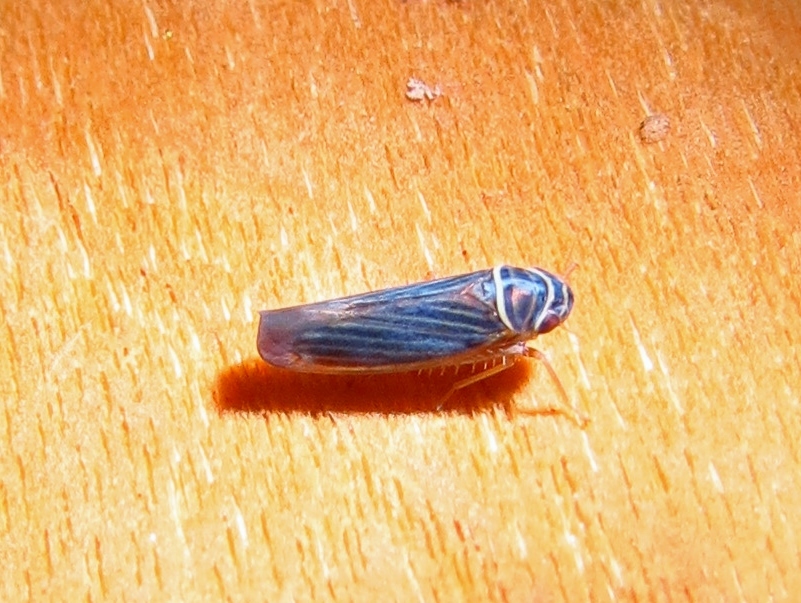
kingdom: Animalia
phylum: Arthropoda
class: Insecta
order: Hemiptera
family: Cicadellidae
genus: Tylozygus
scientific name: Tylozygus bifidus
